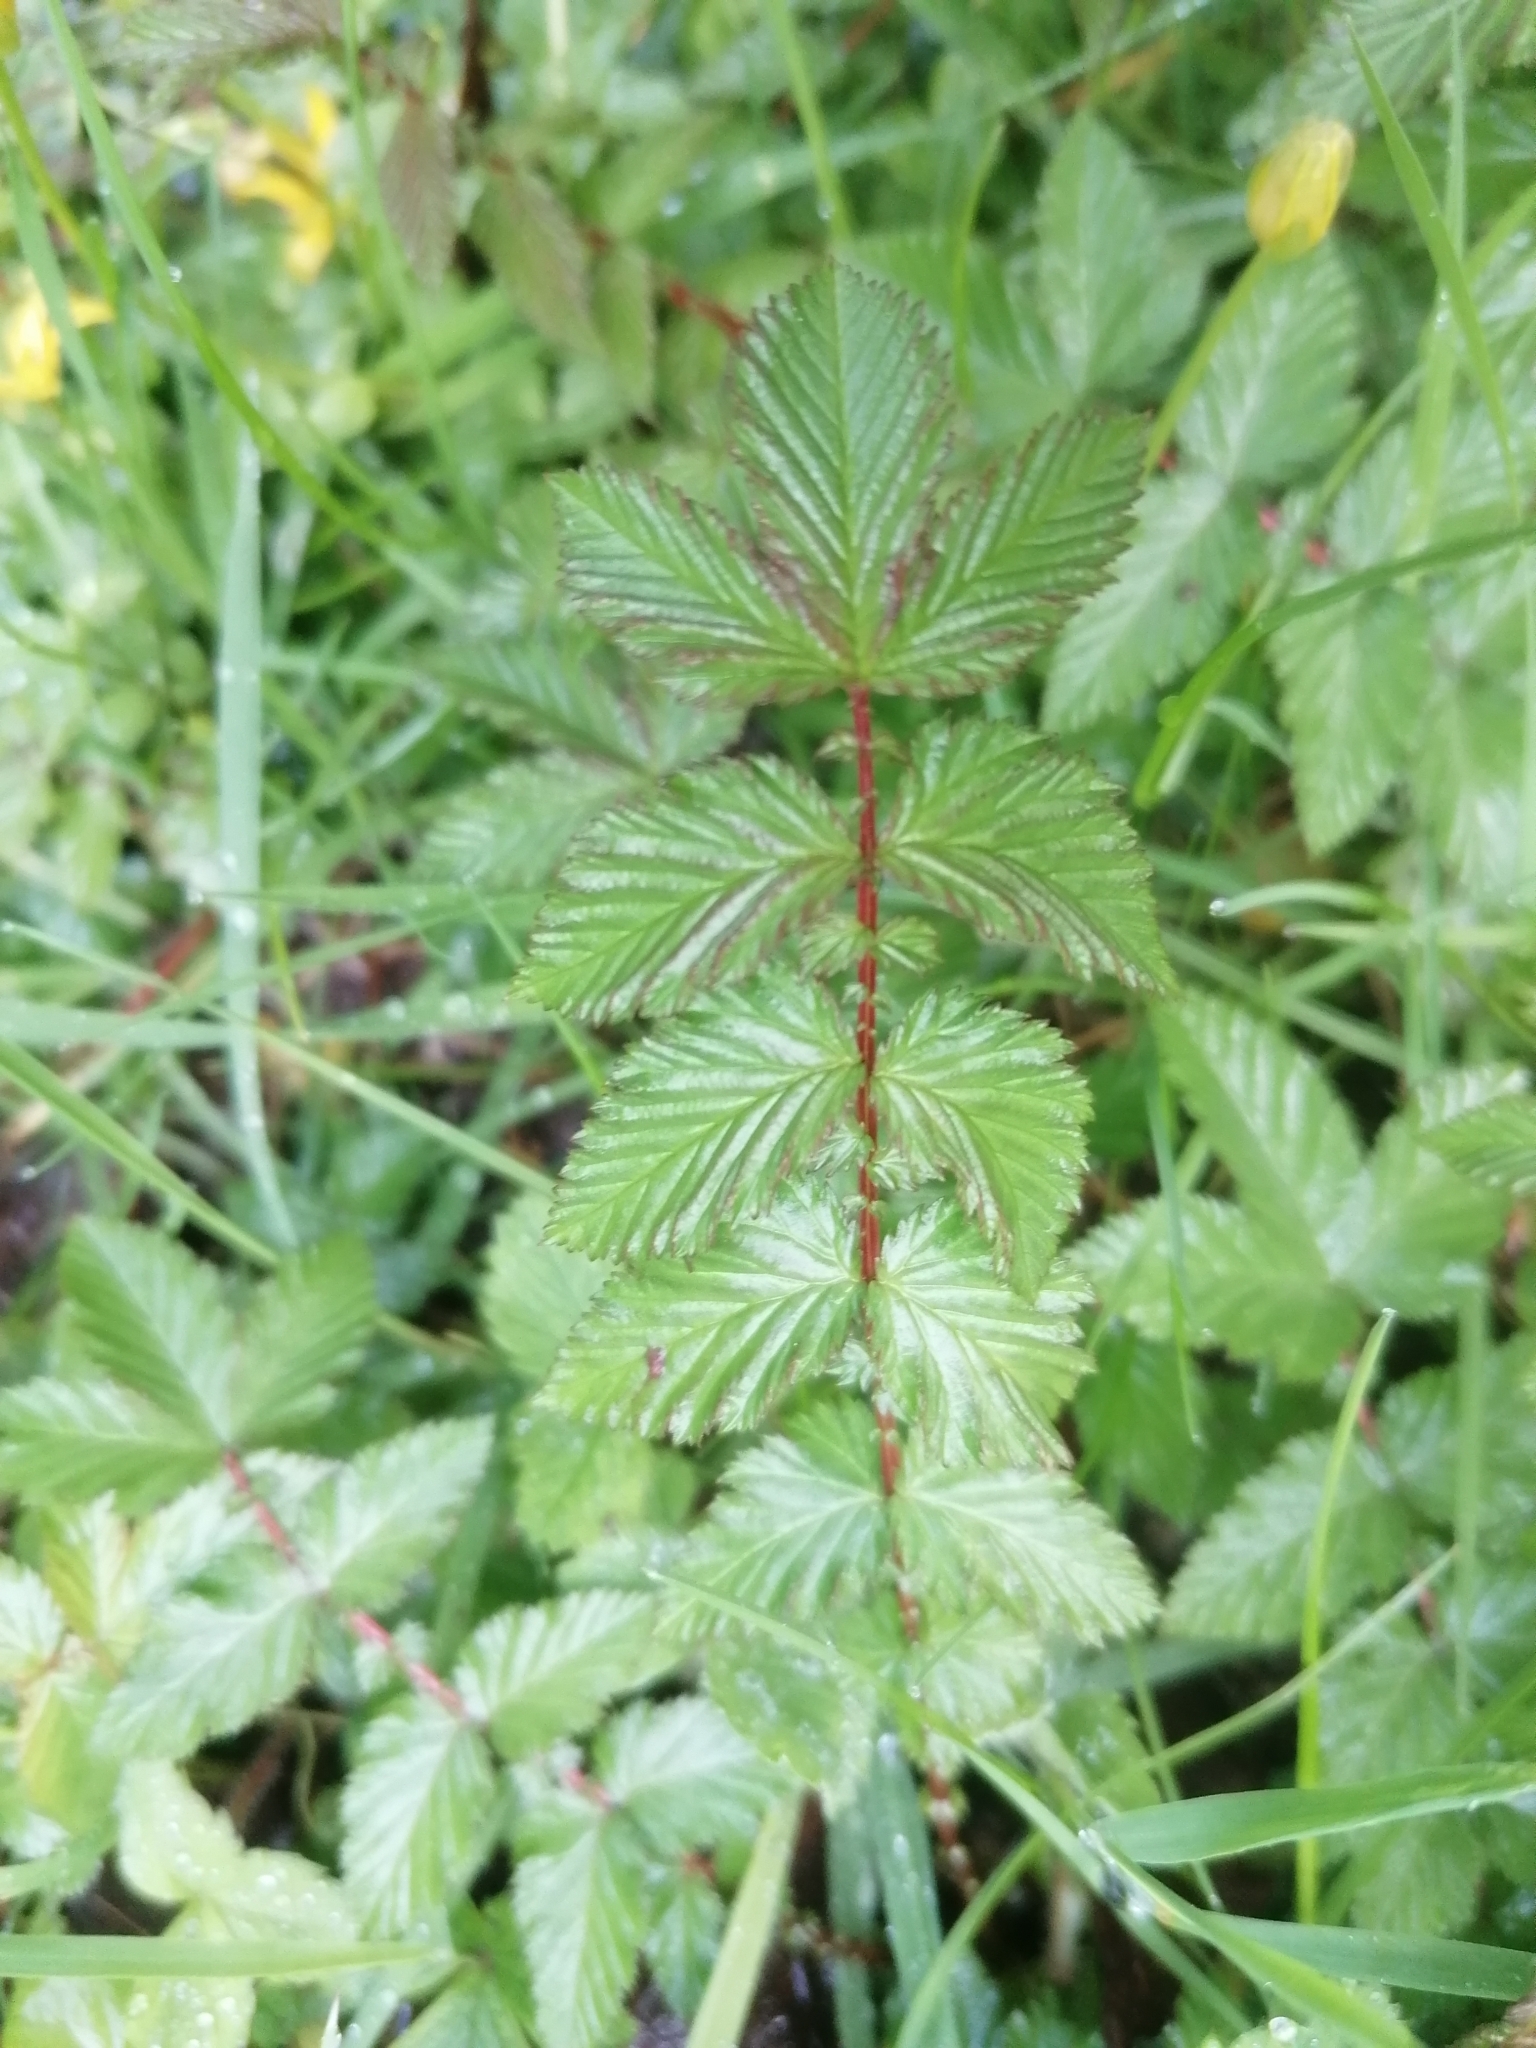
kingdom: Plantae
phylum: Tracheophyta
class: Magnoliopsida
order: Rosales
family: Rosaceae
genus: Filipendula
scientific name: Filipendula ulmaria
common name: Meadowsweet
